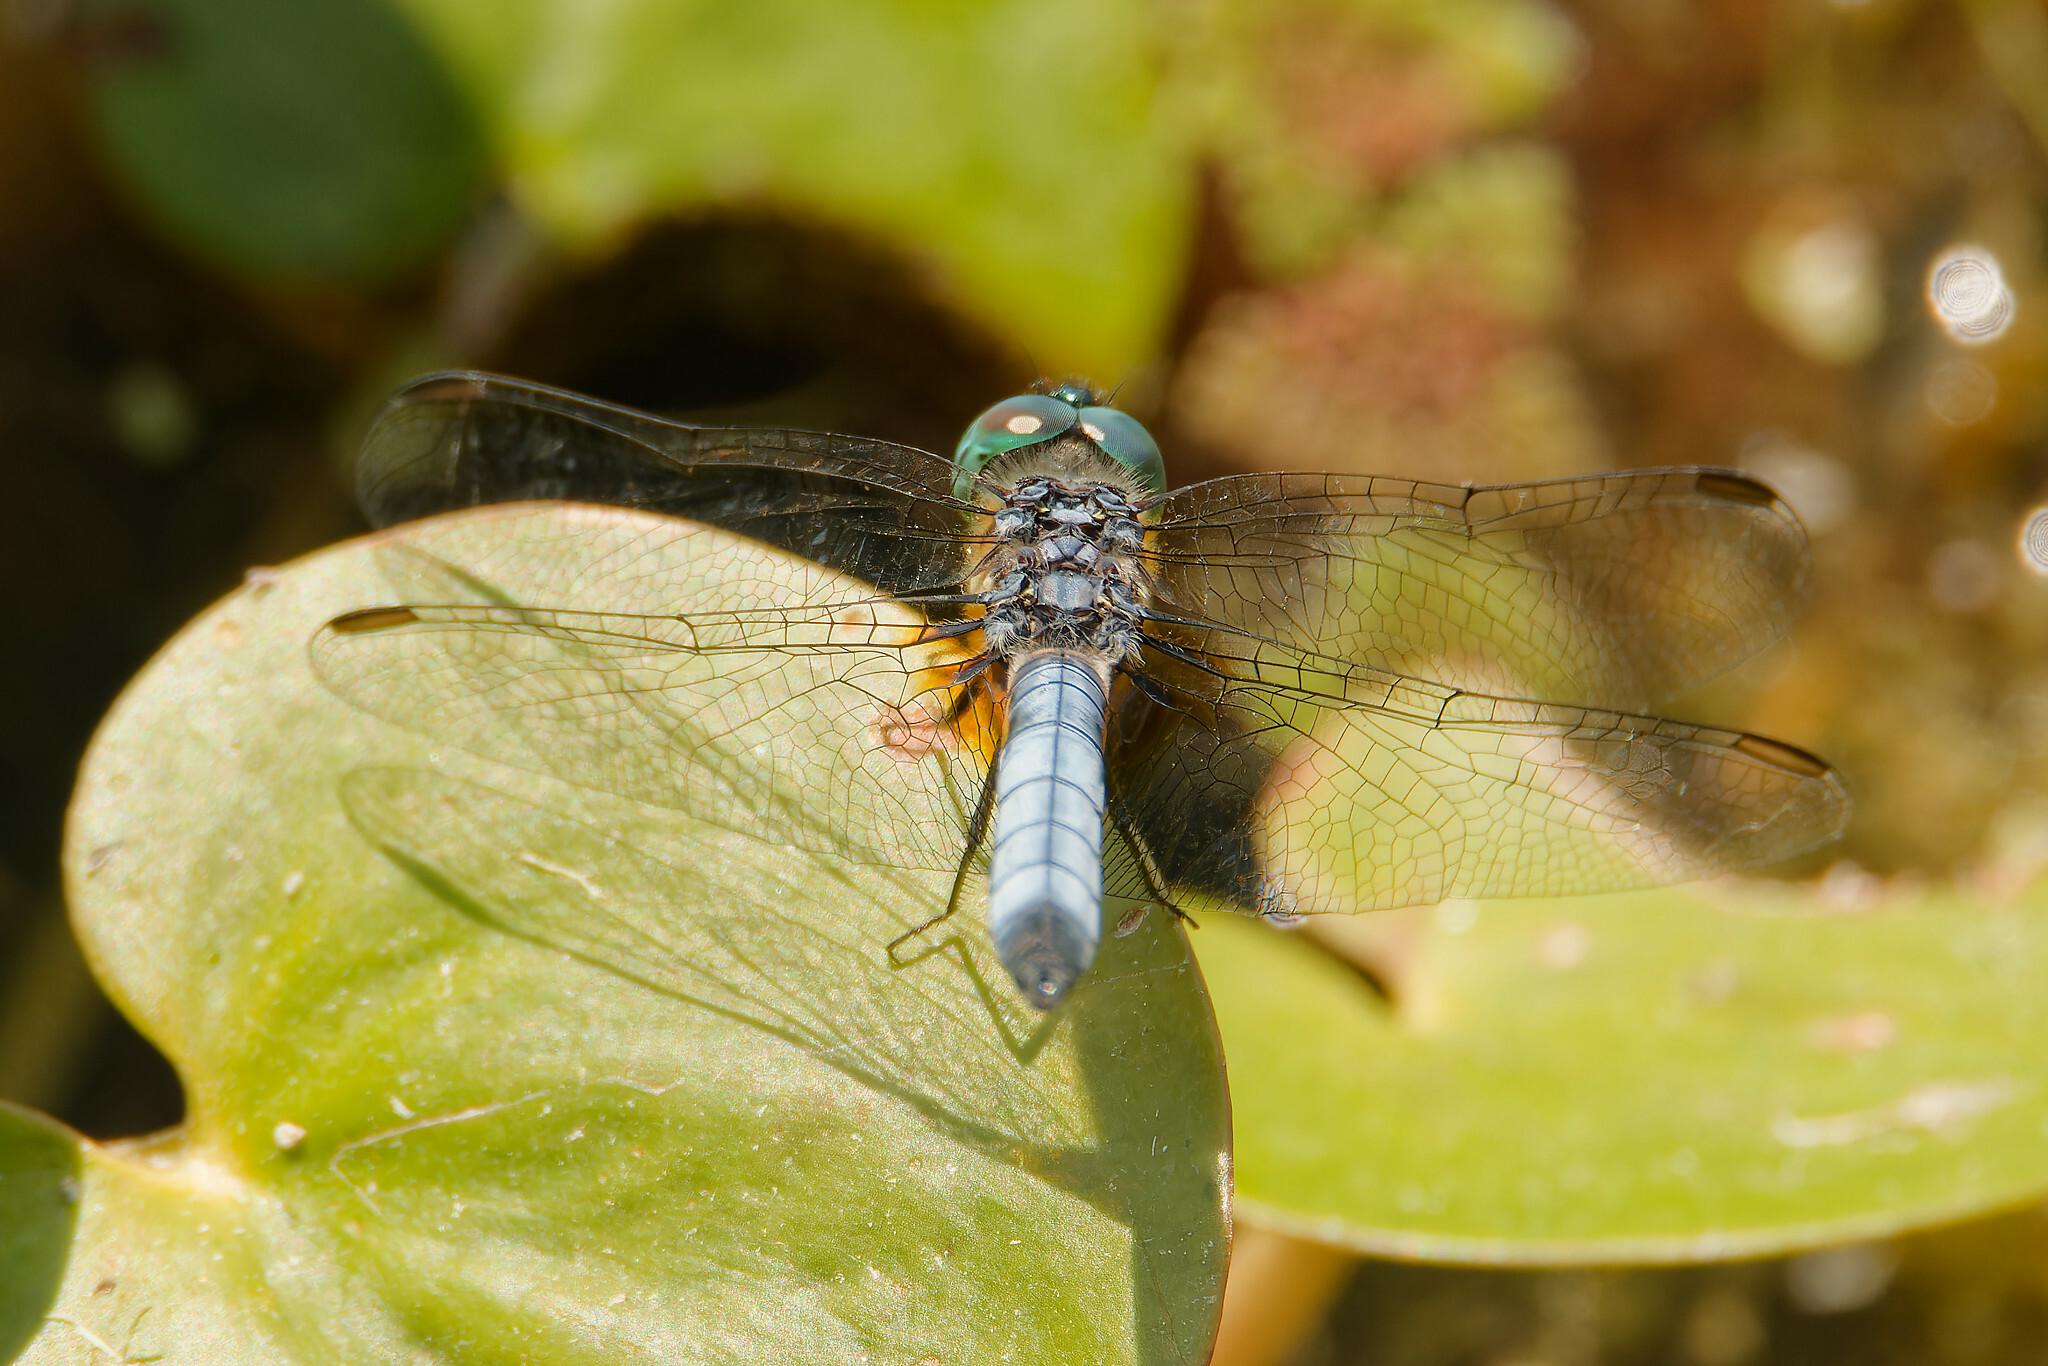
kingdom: Animalia
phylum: Arthropoda
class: Insecta
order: Odonata
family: Libellulidae
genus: Pachydiplax
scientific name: Pachydiplax longipennis
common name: Blue dasher
